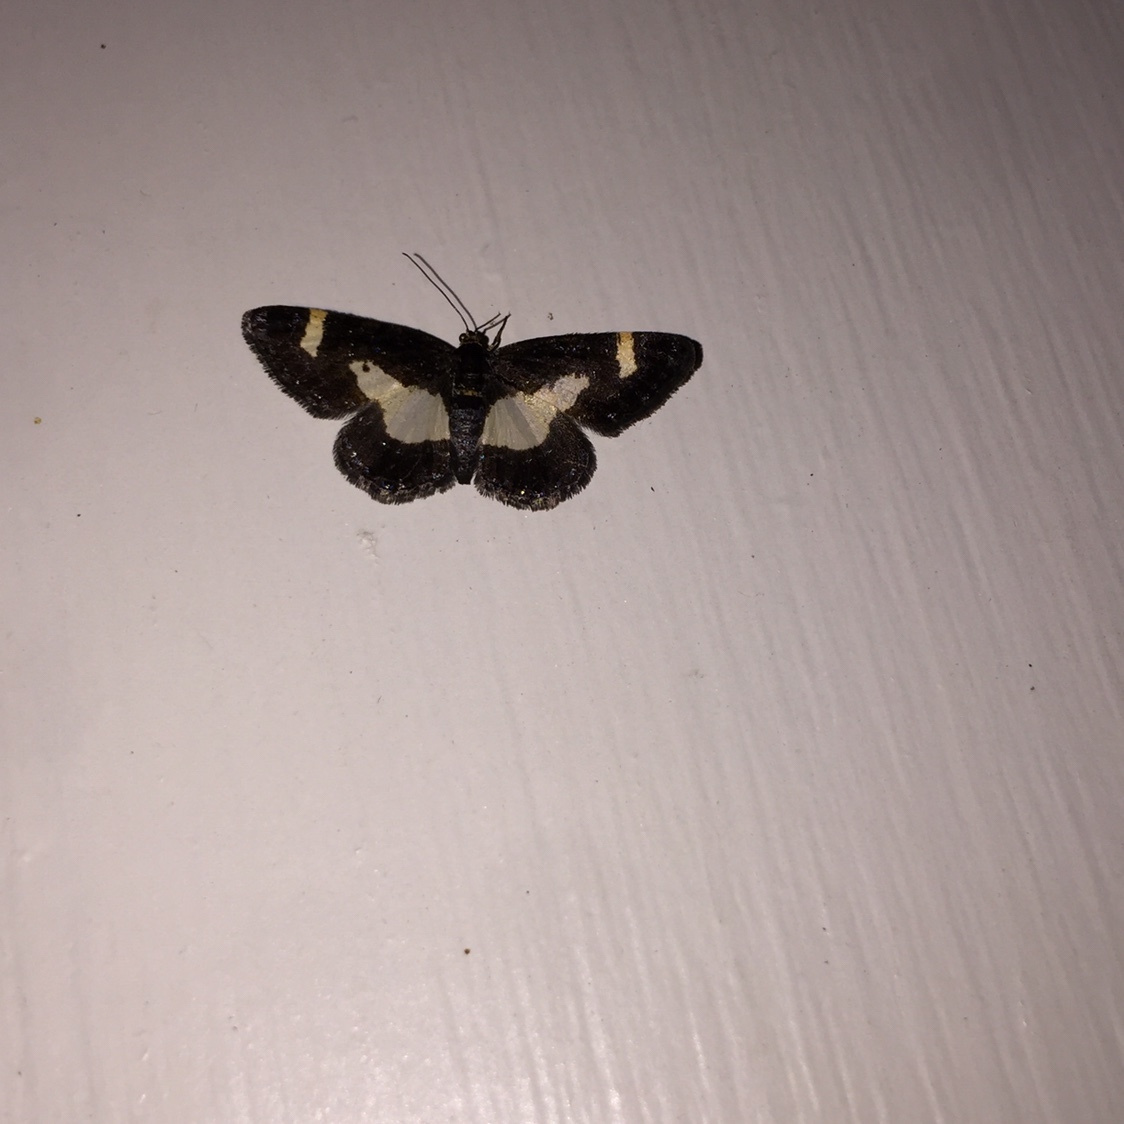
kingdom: Animalia
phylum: Arthropoda
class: Insecta
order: Lepidoptera
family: Geometridae
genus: Heliomata
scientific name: Heliomata cycladata
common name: Common spring moth
